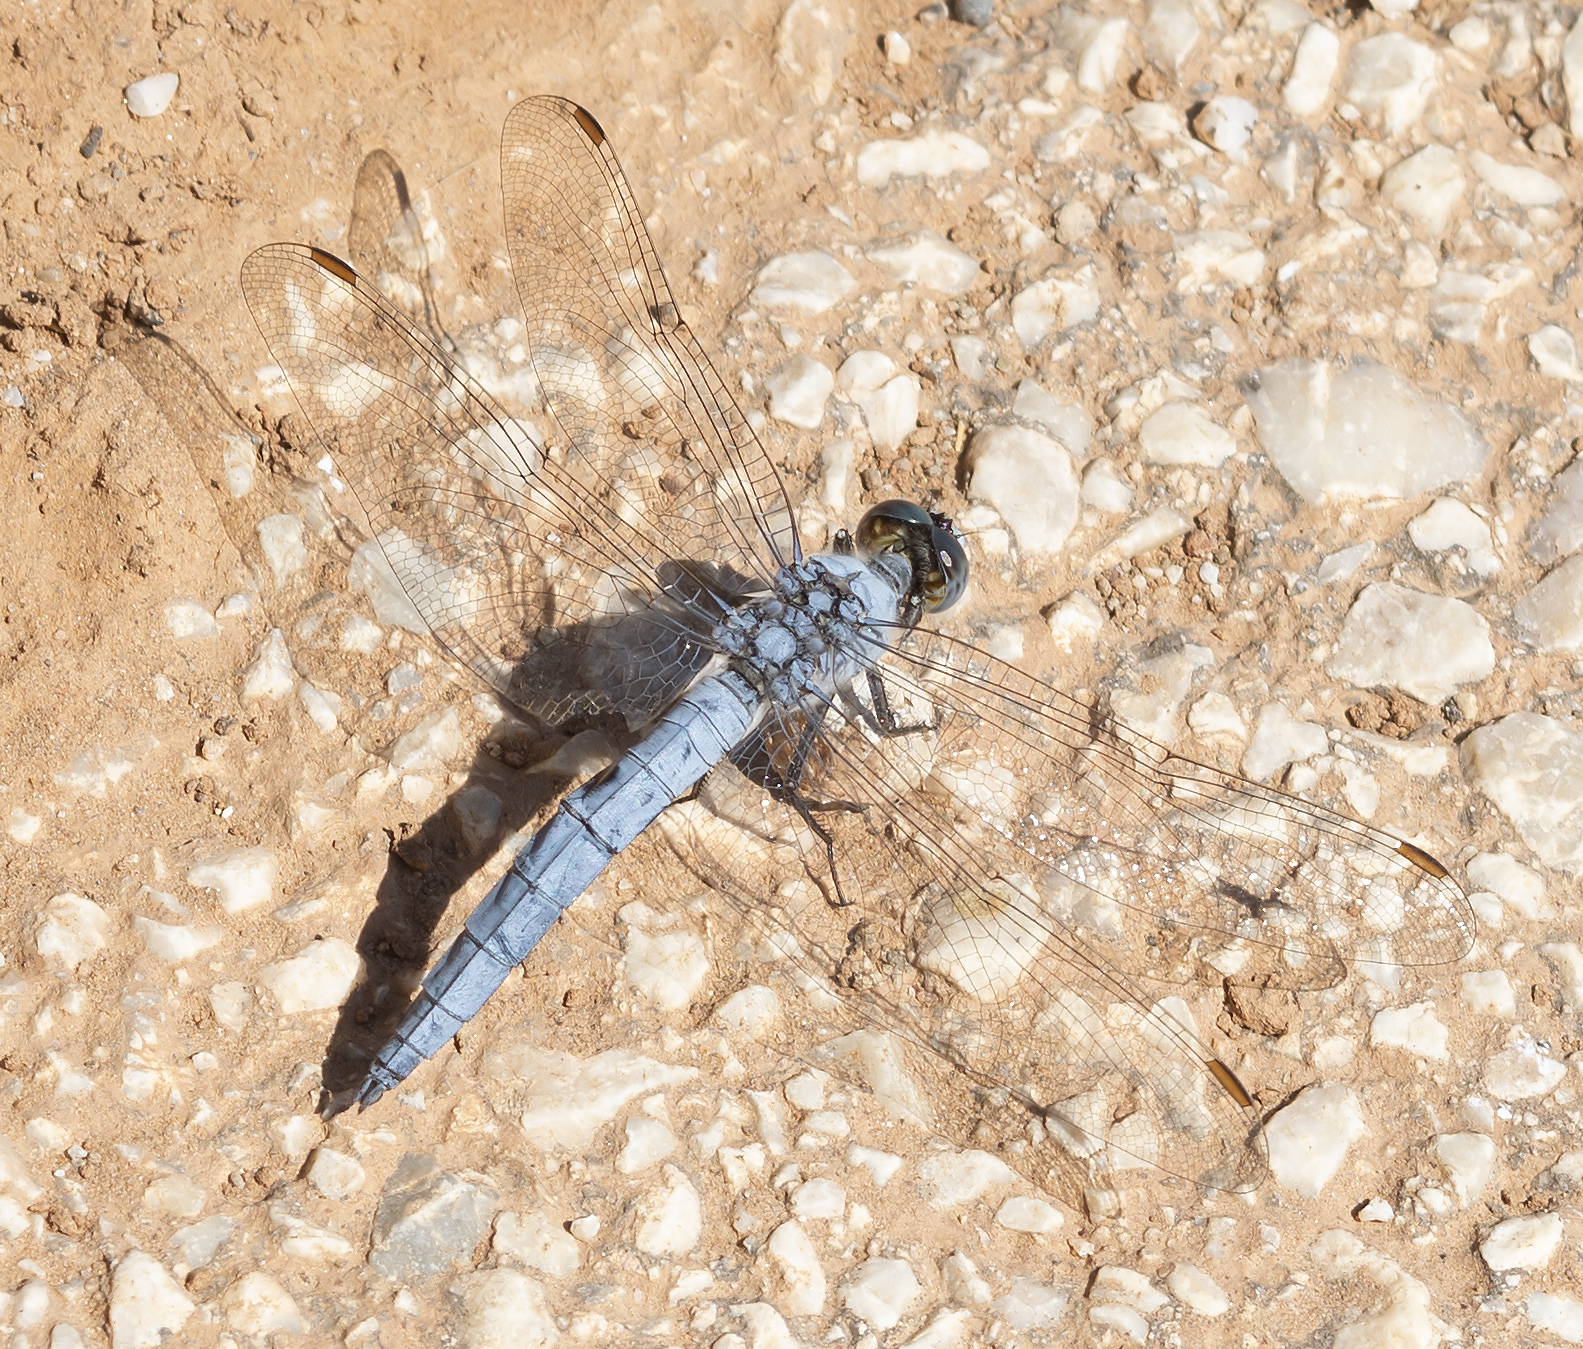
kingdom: Animalia
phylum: Arthropoda
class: Insecta
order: Odonata
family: Libellulidae
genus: Orthetrum
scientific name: Orthetrum brunneum
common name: Southern skimmer
